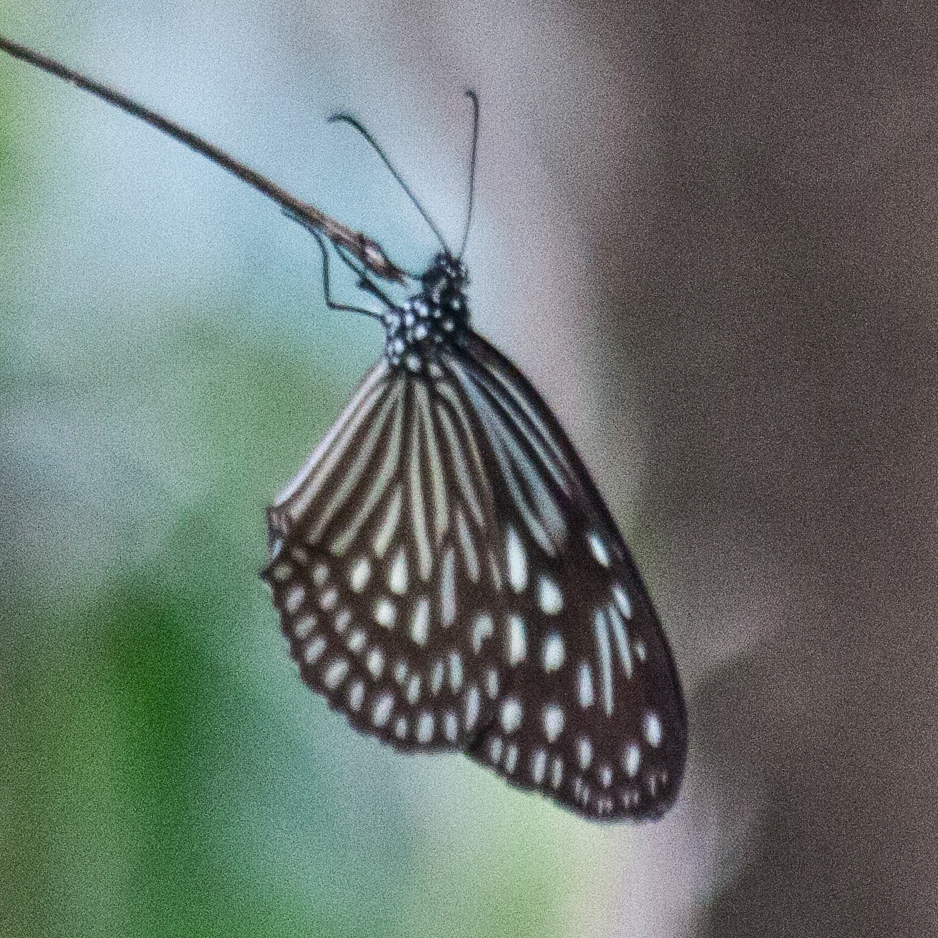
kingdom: Animalia
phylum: Arthropoda
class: Insecta
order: Lepidoptera
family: Nymphalidae
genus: Parantica
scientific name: Parantica agleoides
